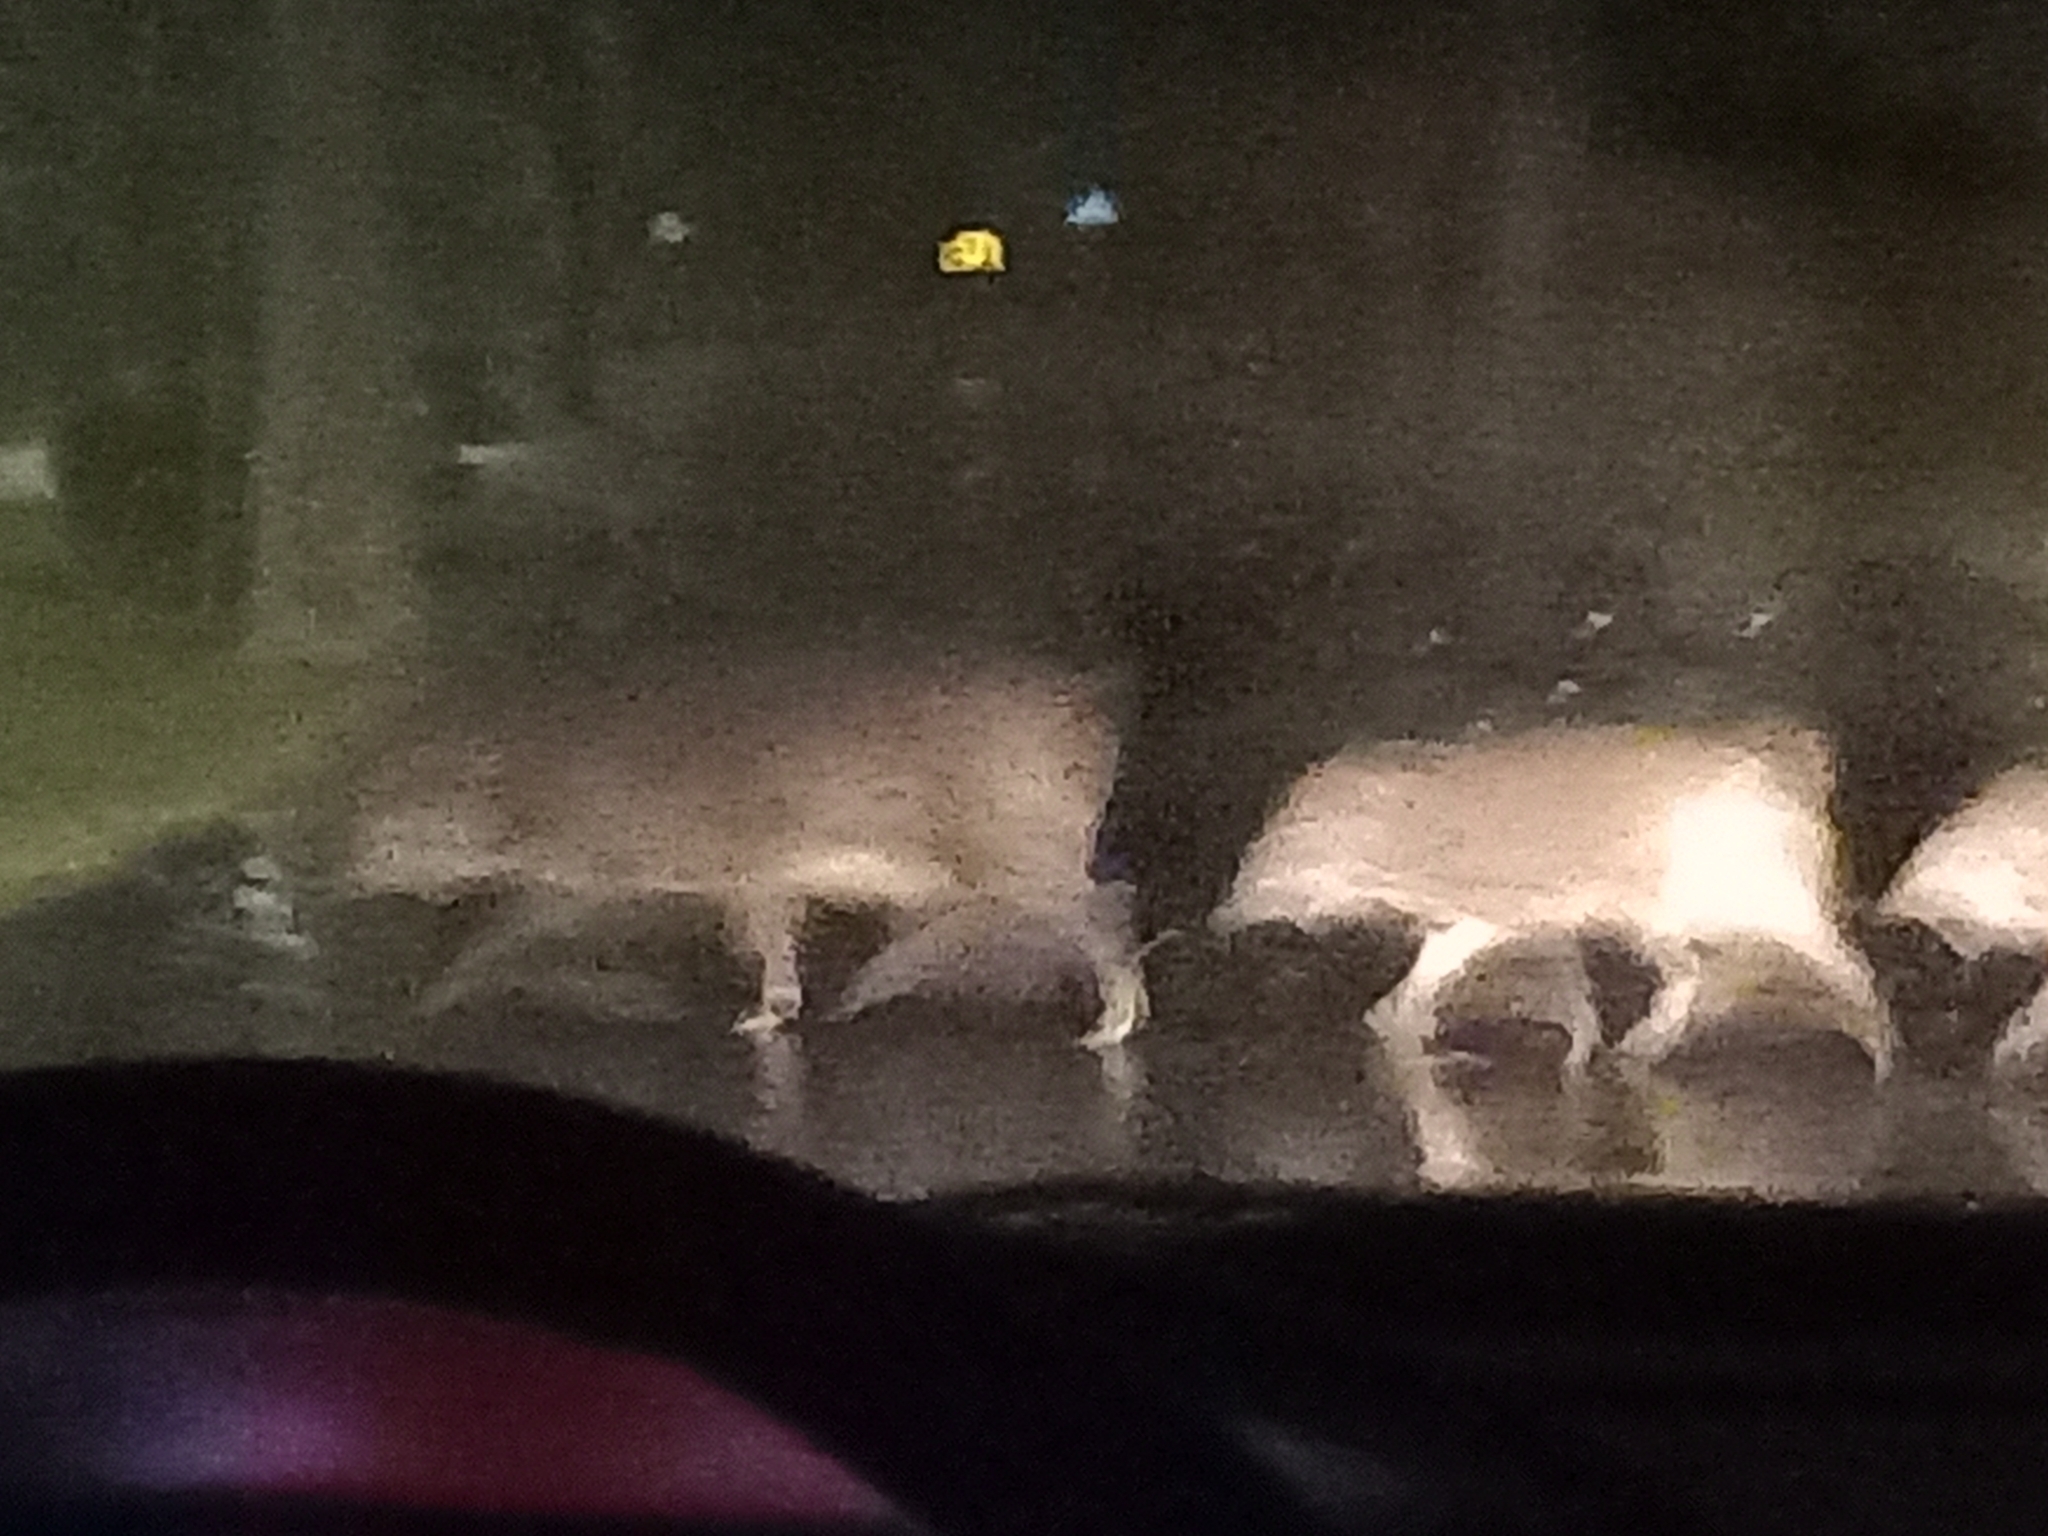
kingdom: Animalia
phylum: Chordata
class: Mammalia
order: Artiodactyla
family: Suidae
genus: Sus
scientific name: Sus scrofa
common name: Wild boar
